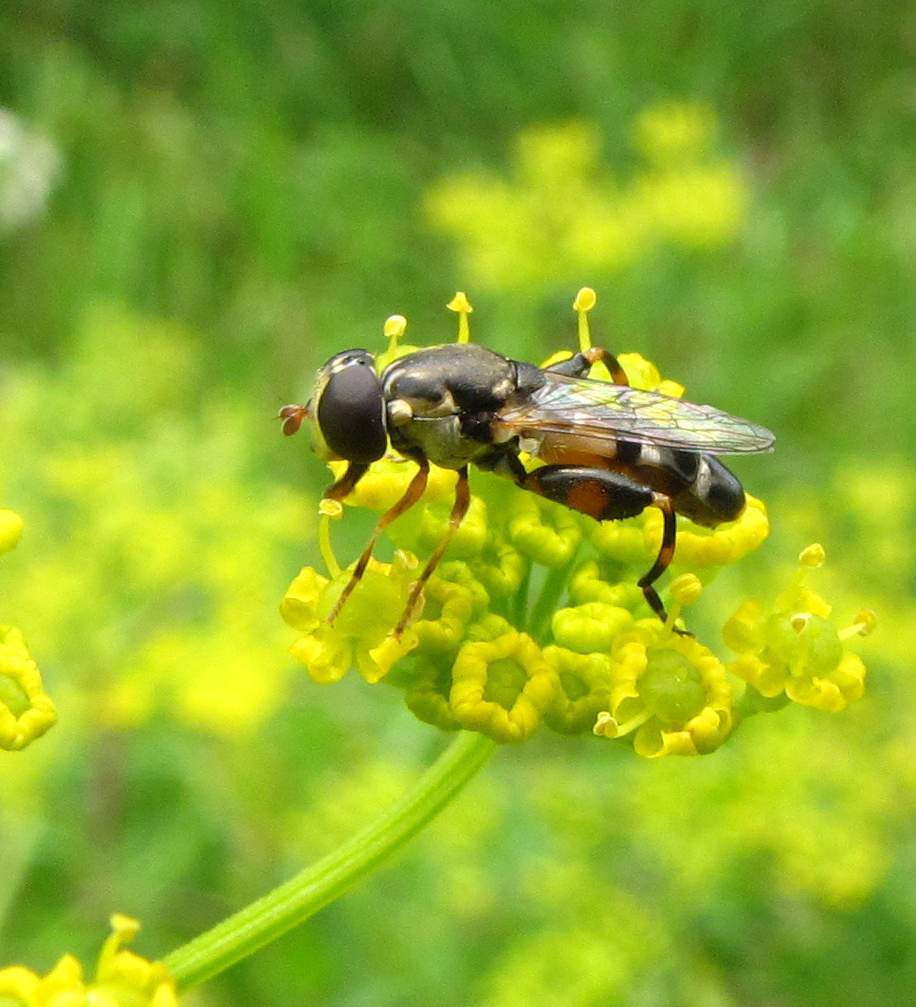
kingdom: Animalia
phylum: Arthropoda
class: Insecta
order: Diptera
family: Syrphidae
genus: Syritta
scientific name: Syritta pipiens
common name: Hover fly
